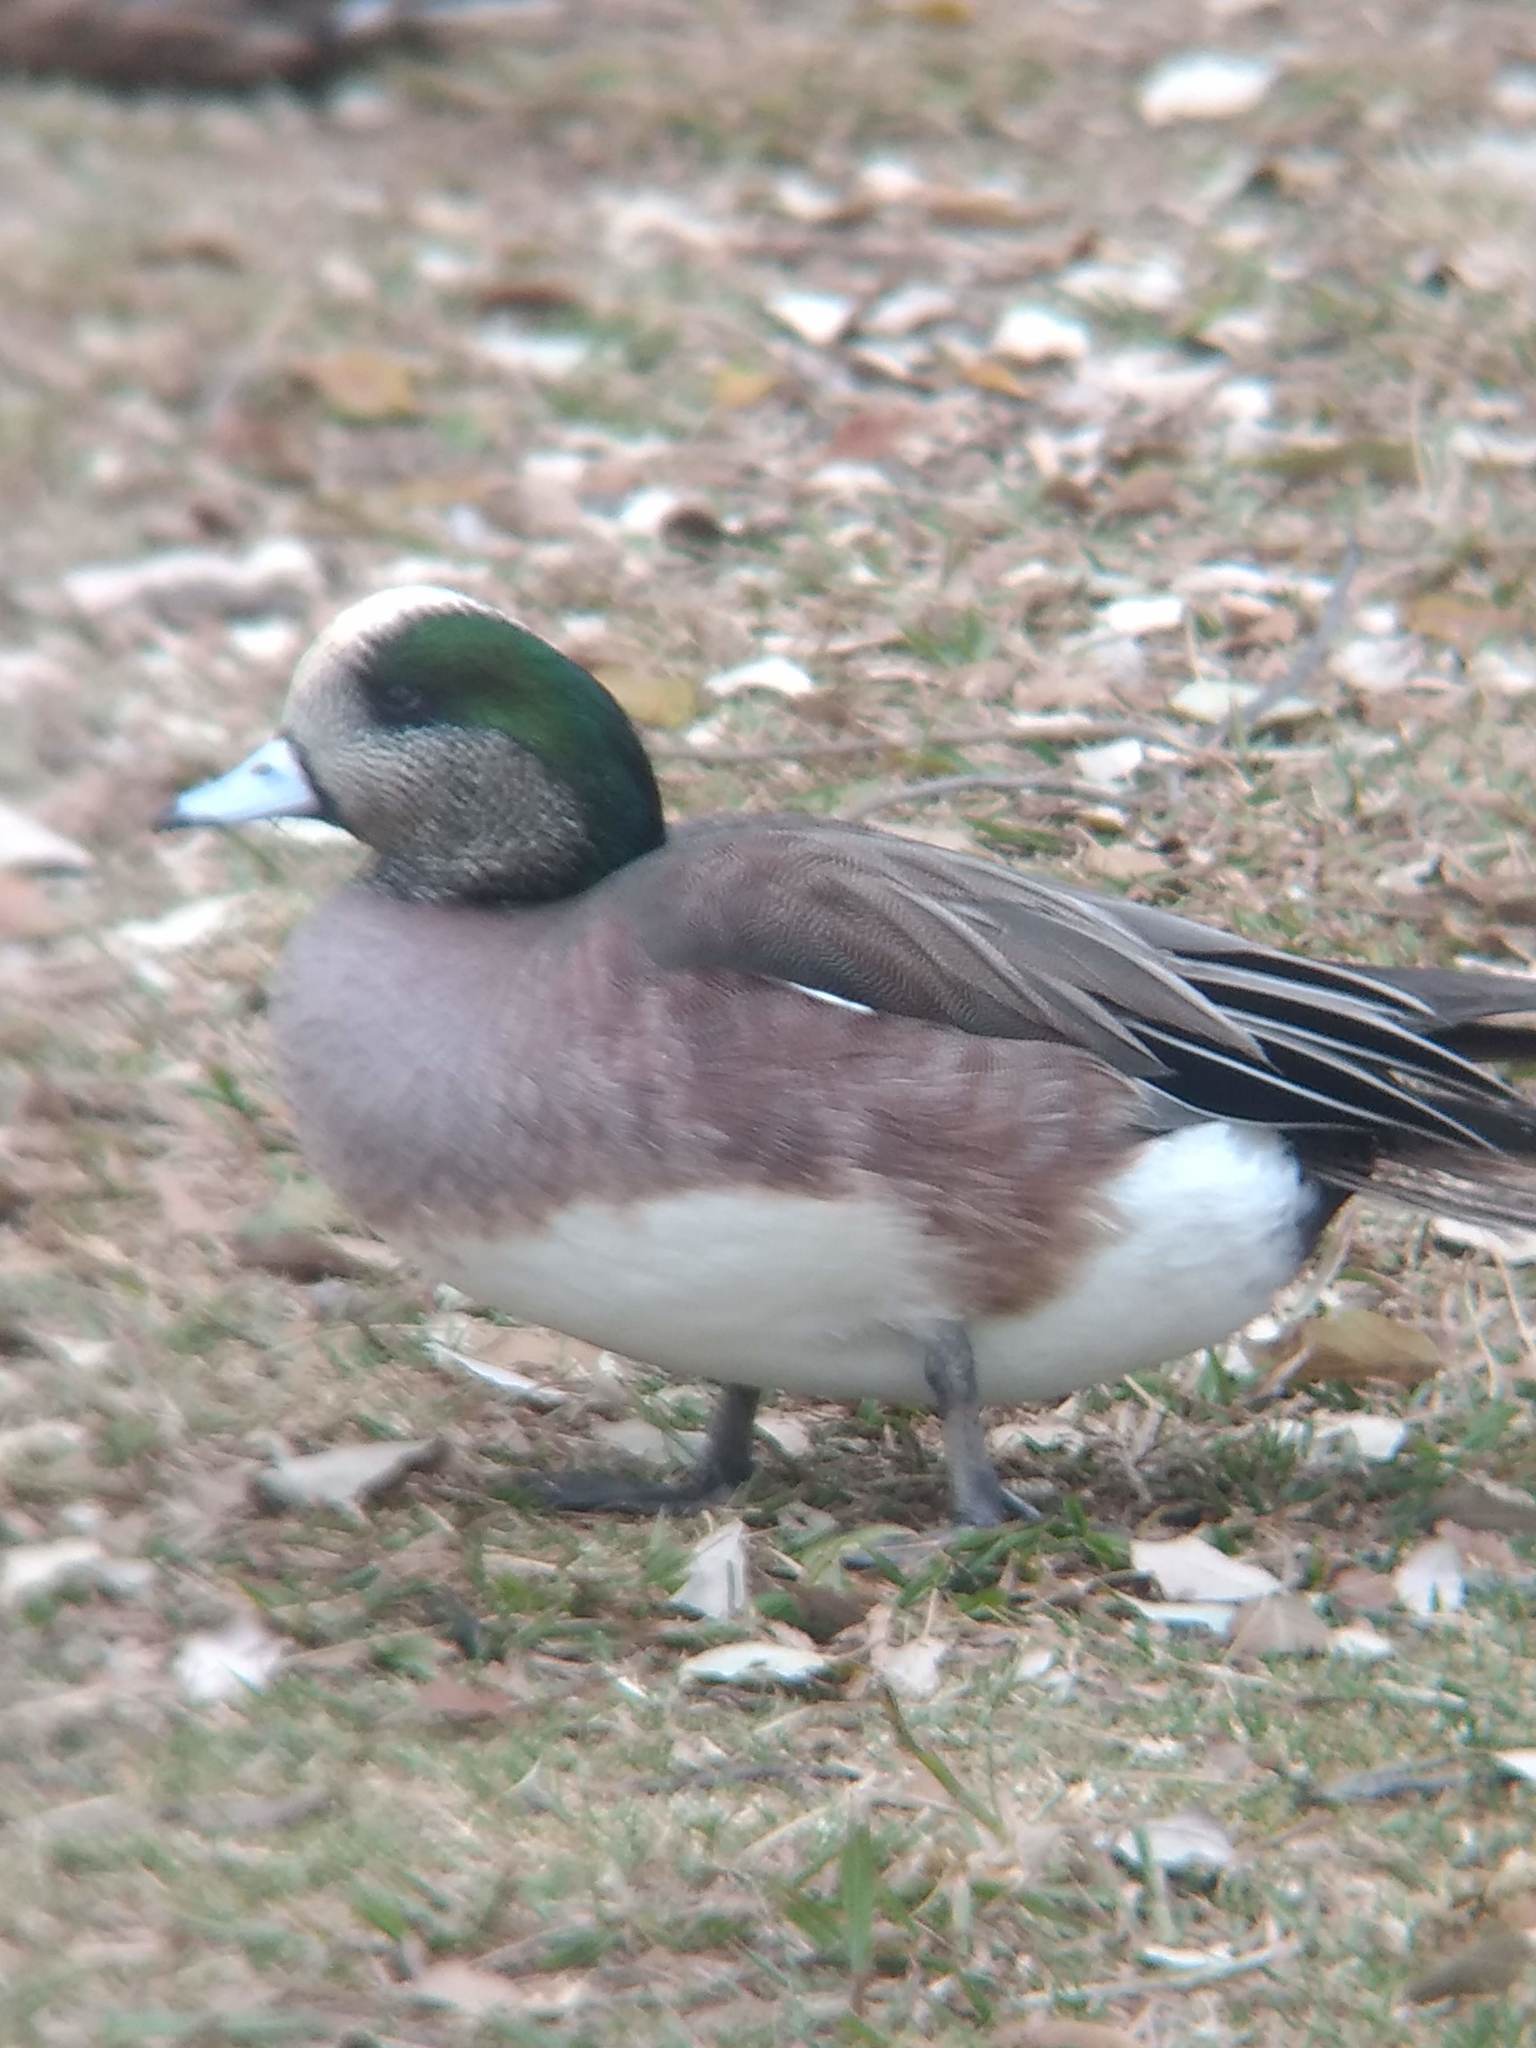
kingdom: Animalia
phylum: Chordata
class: Aves
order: Anseriformes
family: Anatidae
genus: Mareca
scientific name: Mareca americana
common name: American wigeon
